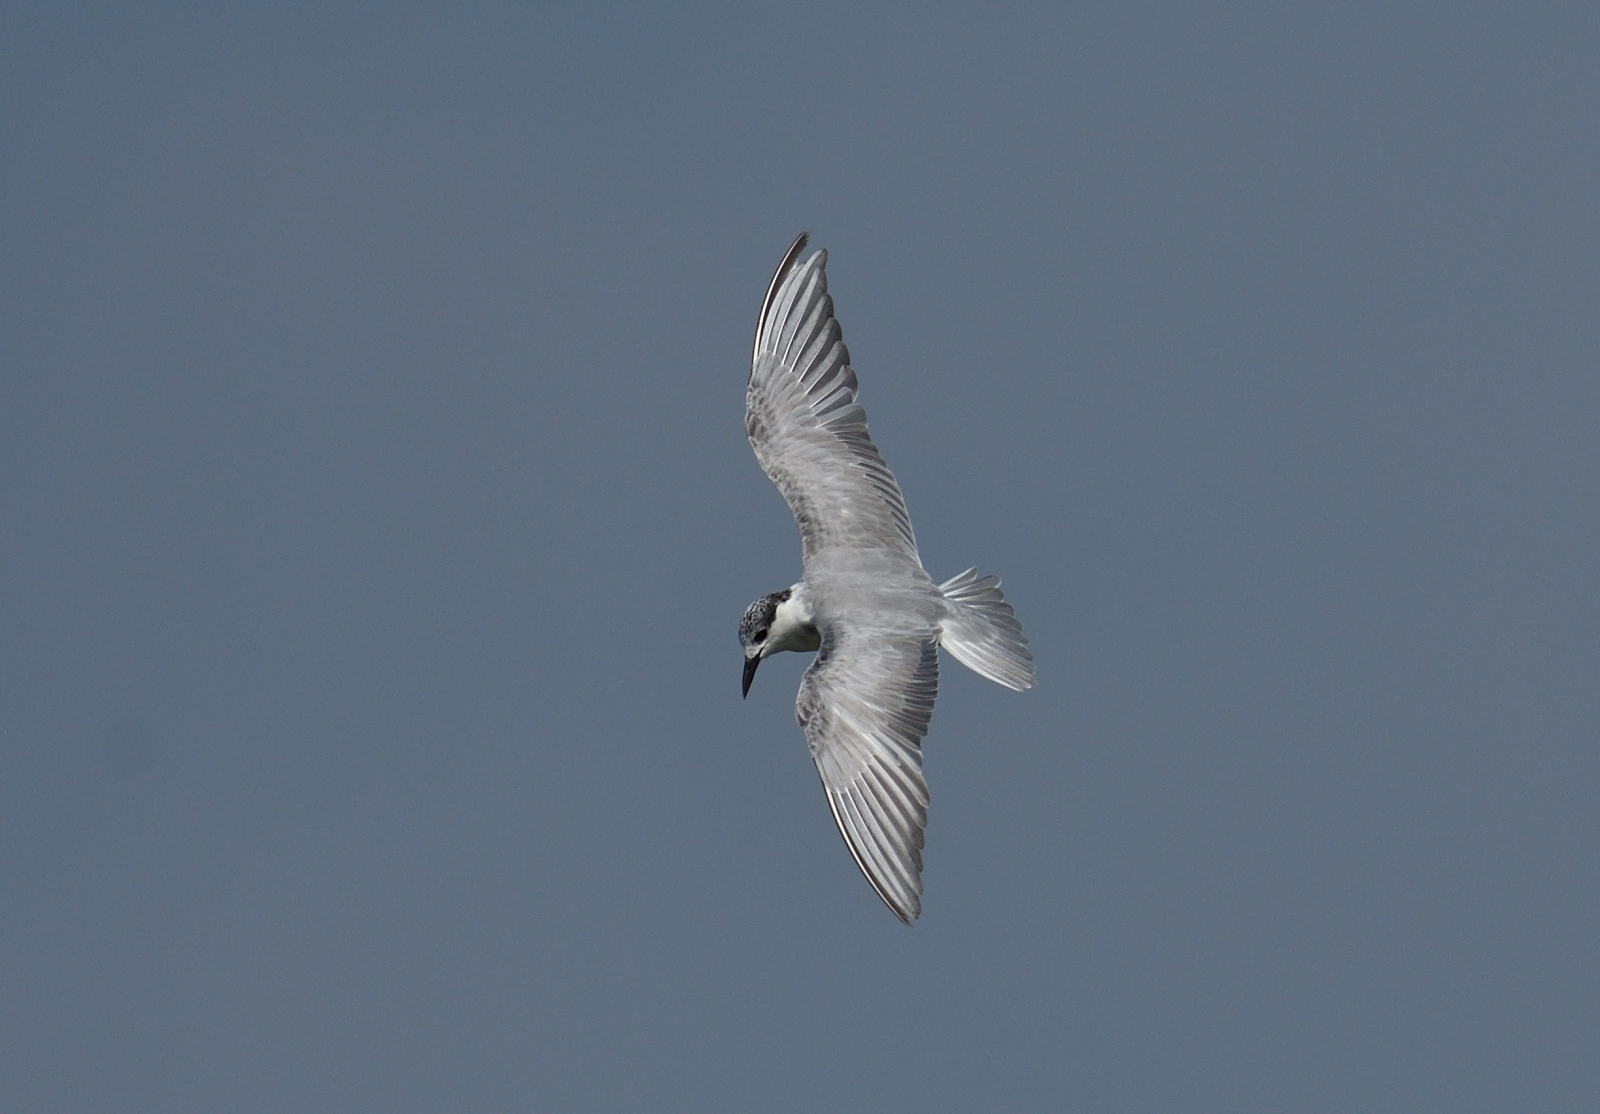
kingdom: Animalia
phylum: Chordata
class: Aves
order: Charadriiformes
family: Laridae
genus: Chlidonias
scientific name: Chlidonias hybrida
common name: Whiskered tern
